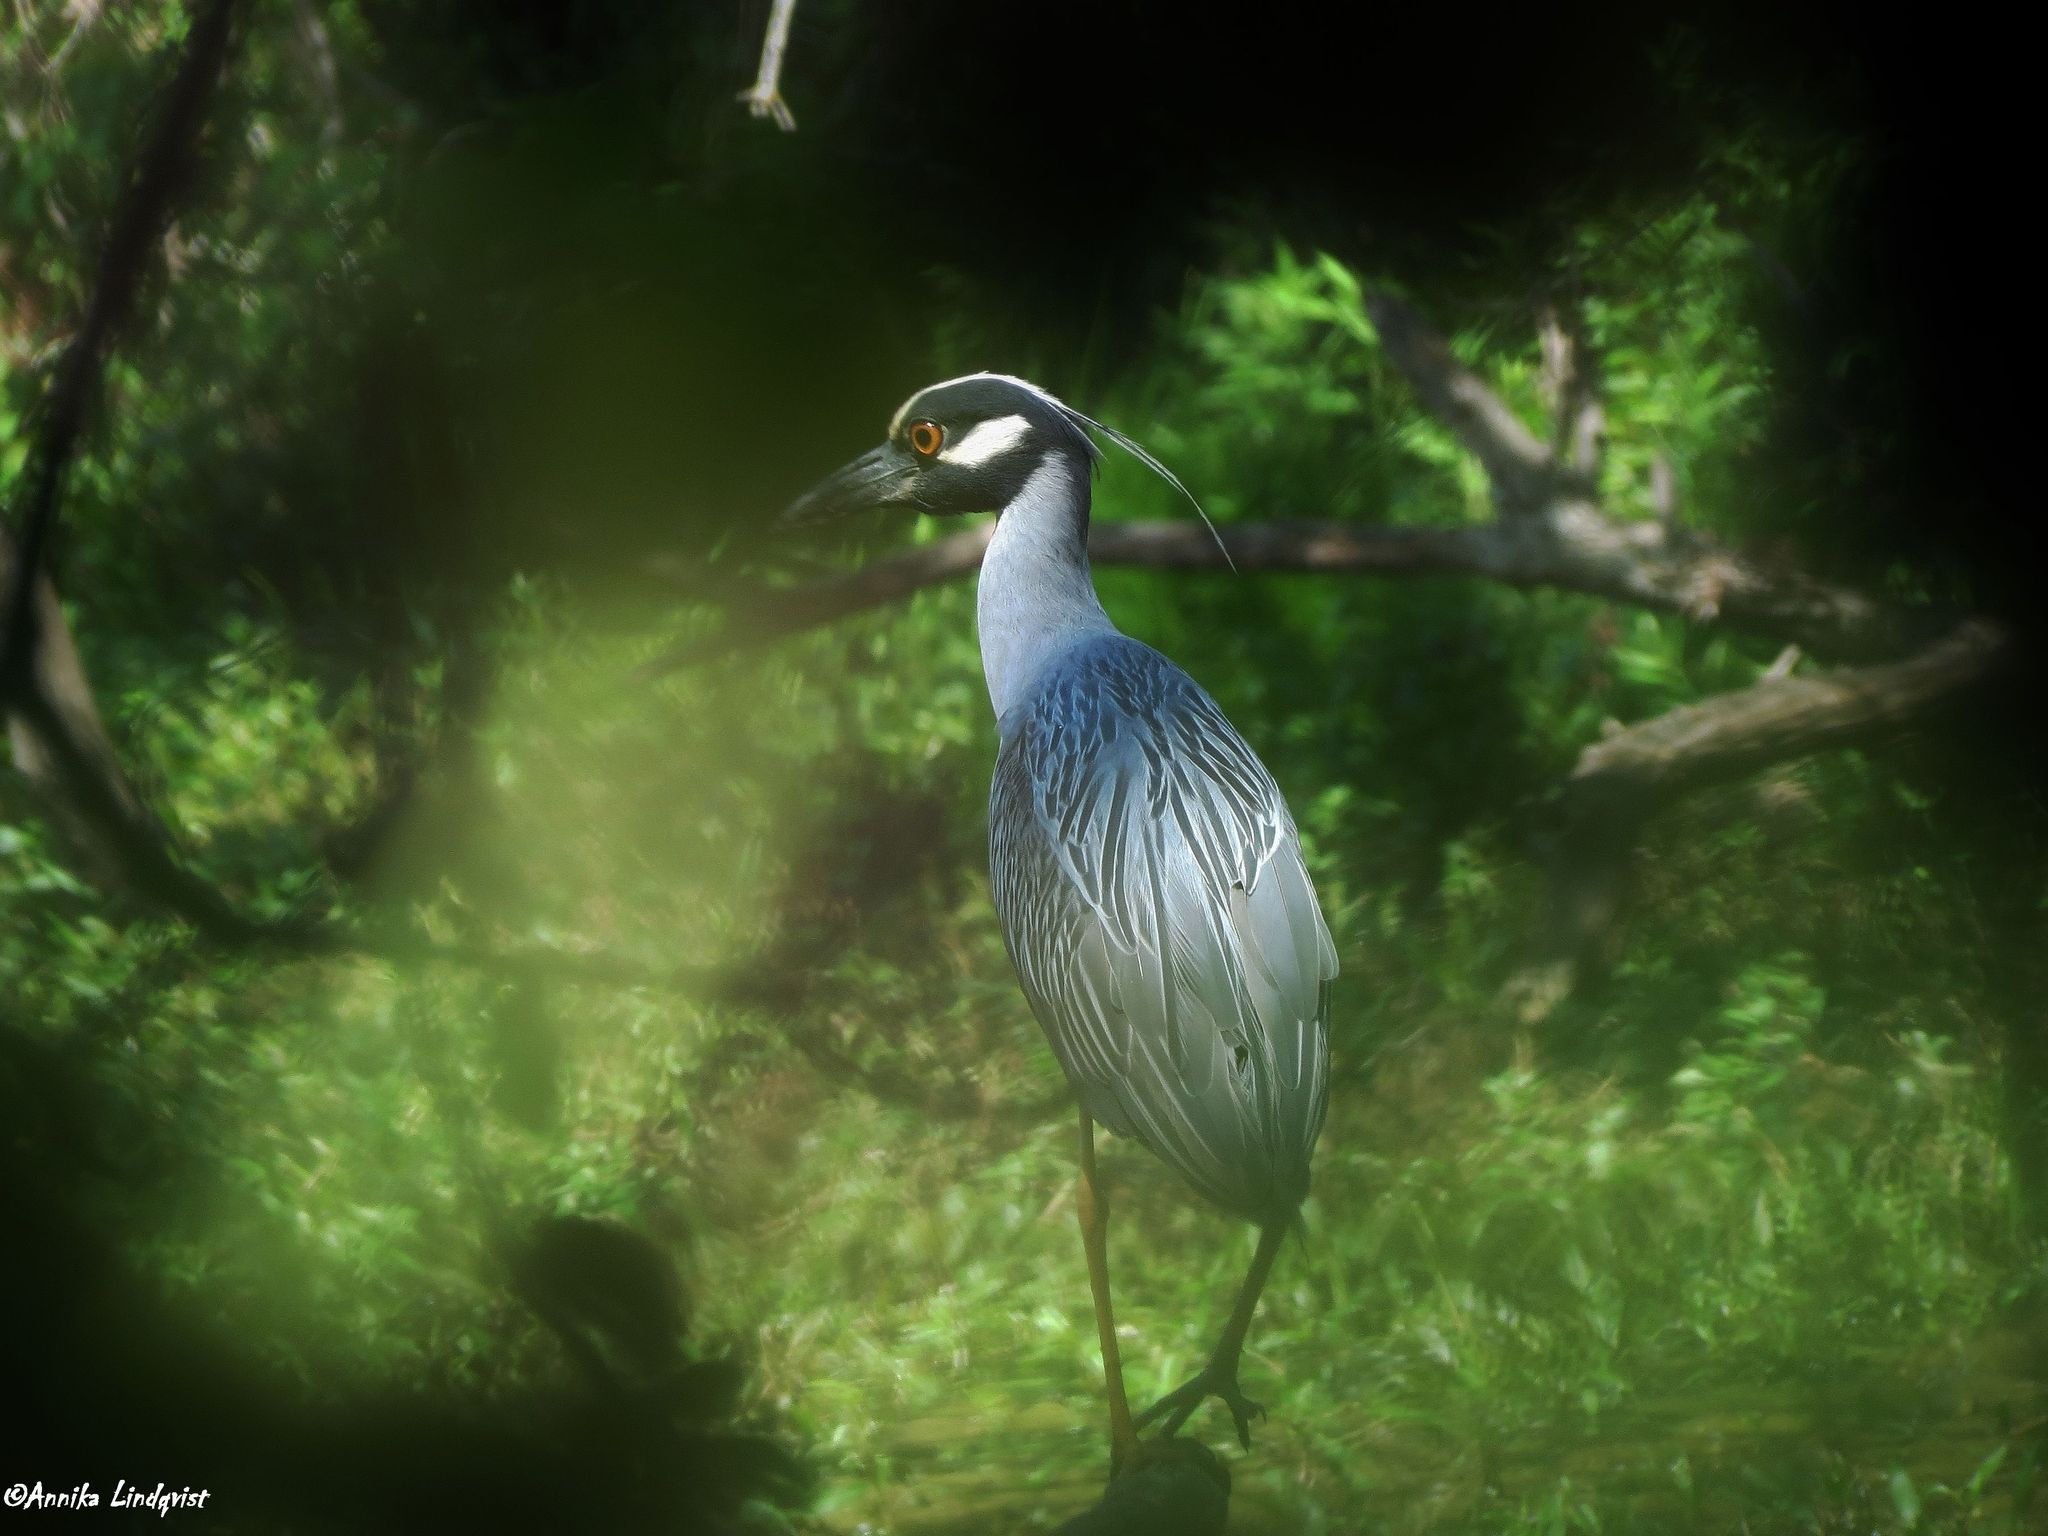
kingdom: Animalia
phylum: Chordata
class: Aves
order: Pelecaniformes
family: Ardeidae
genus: Nyctanassa
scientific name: Nyctanassa violacea
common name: Yellow-crowned night heron
